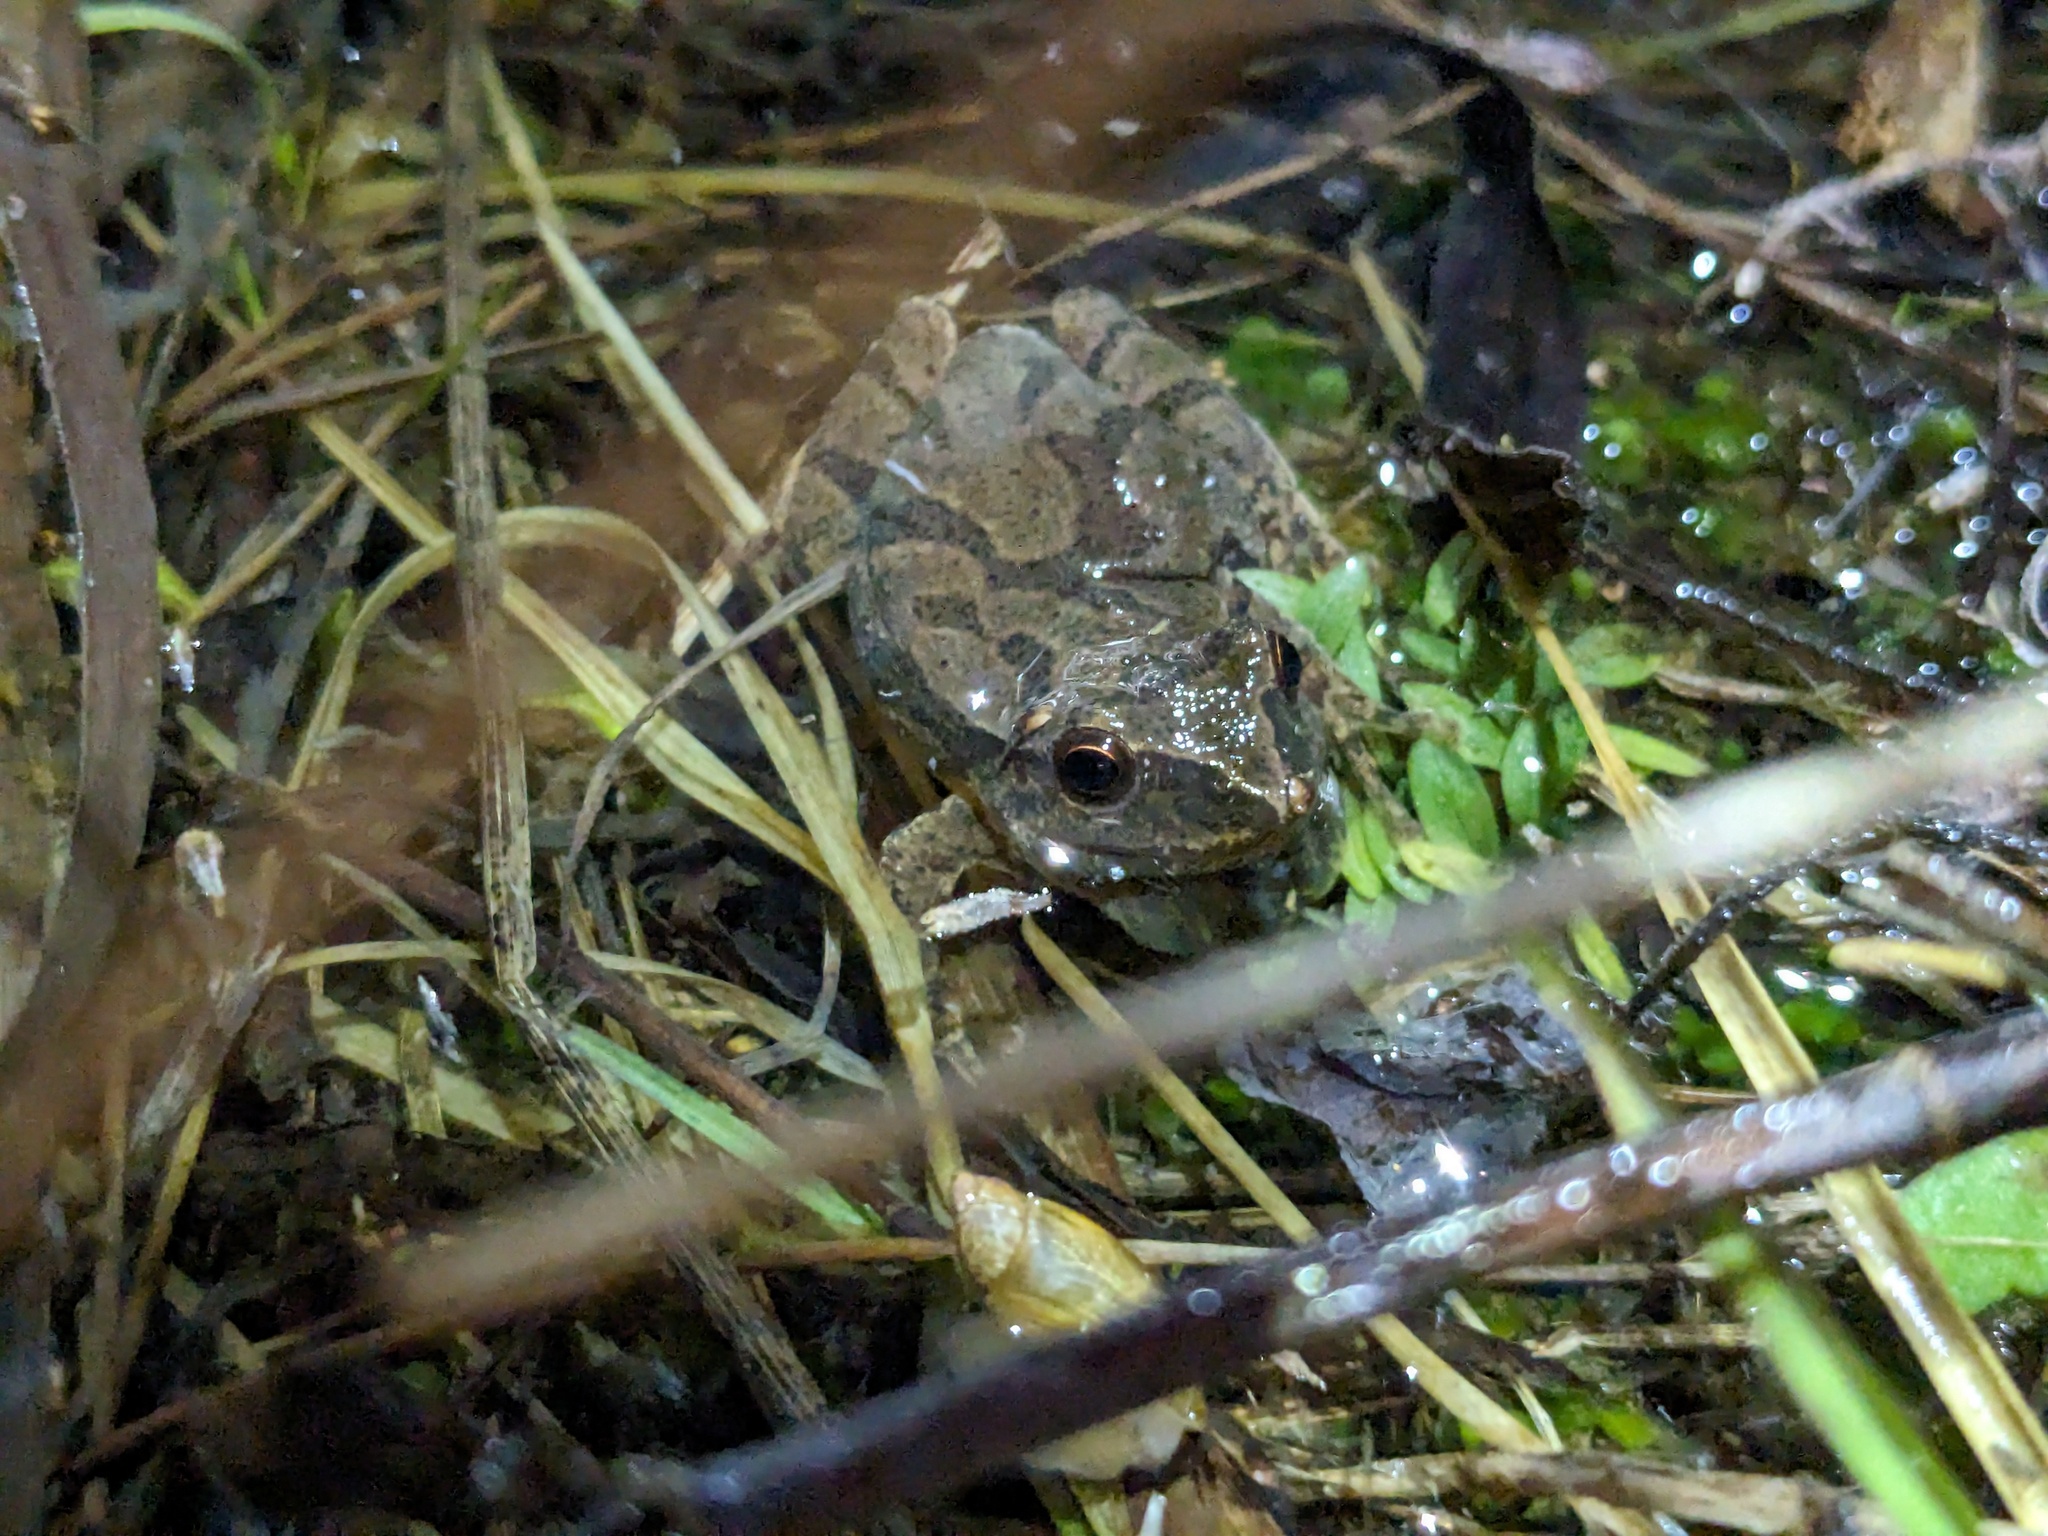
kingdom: Animalia
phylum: Chordata
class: Amphibia
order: Anura
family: Hylidae
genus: Pseudacris
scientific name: Pseudacris crucifer
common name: Spring peeper
